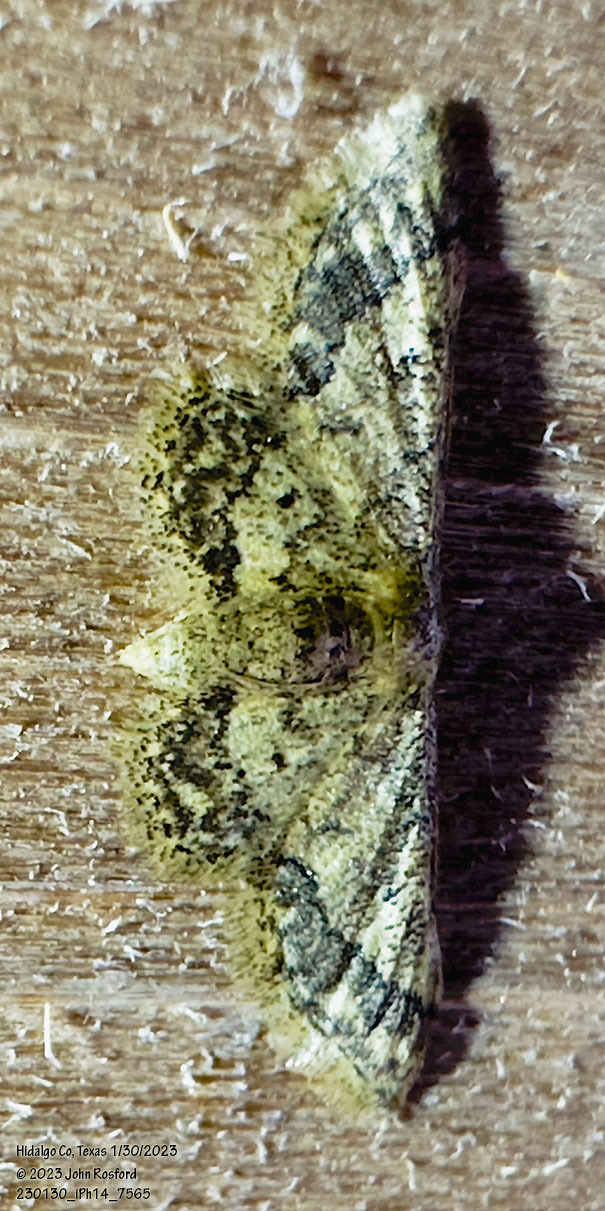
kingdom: Animalia
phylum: Arthropoda
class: Insecta
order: Lepidoptera
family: Geometridae
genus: Idaea
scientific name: Idaea celtima
